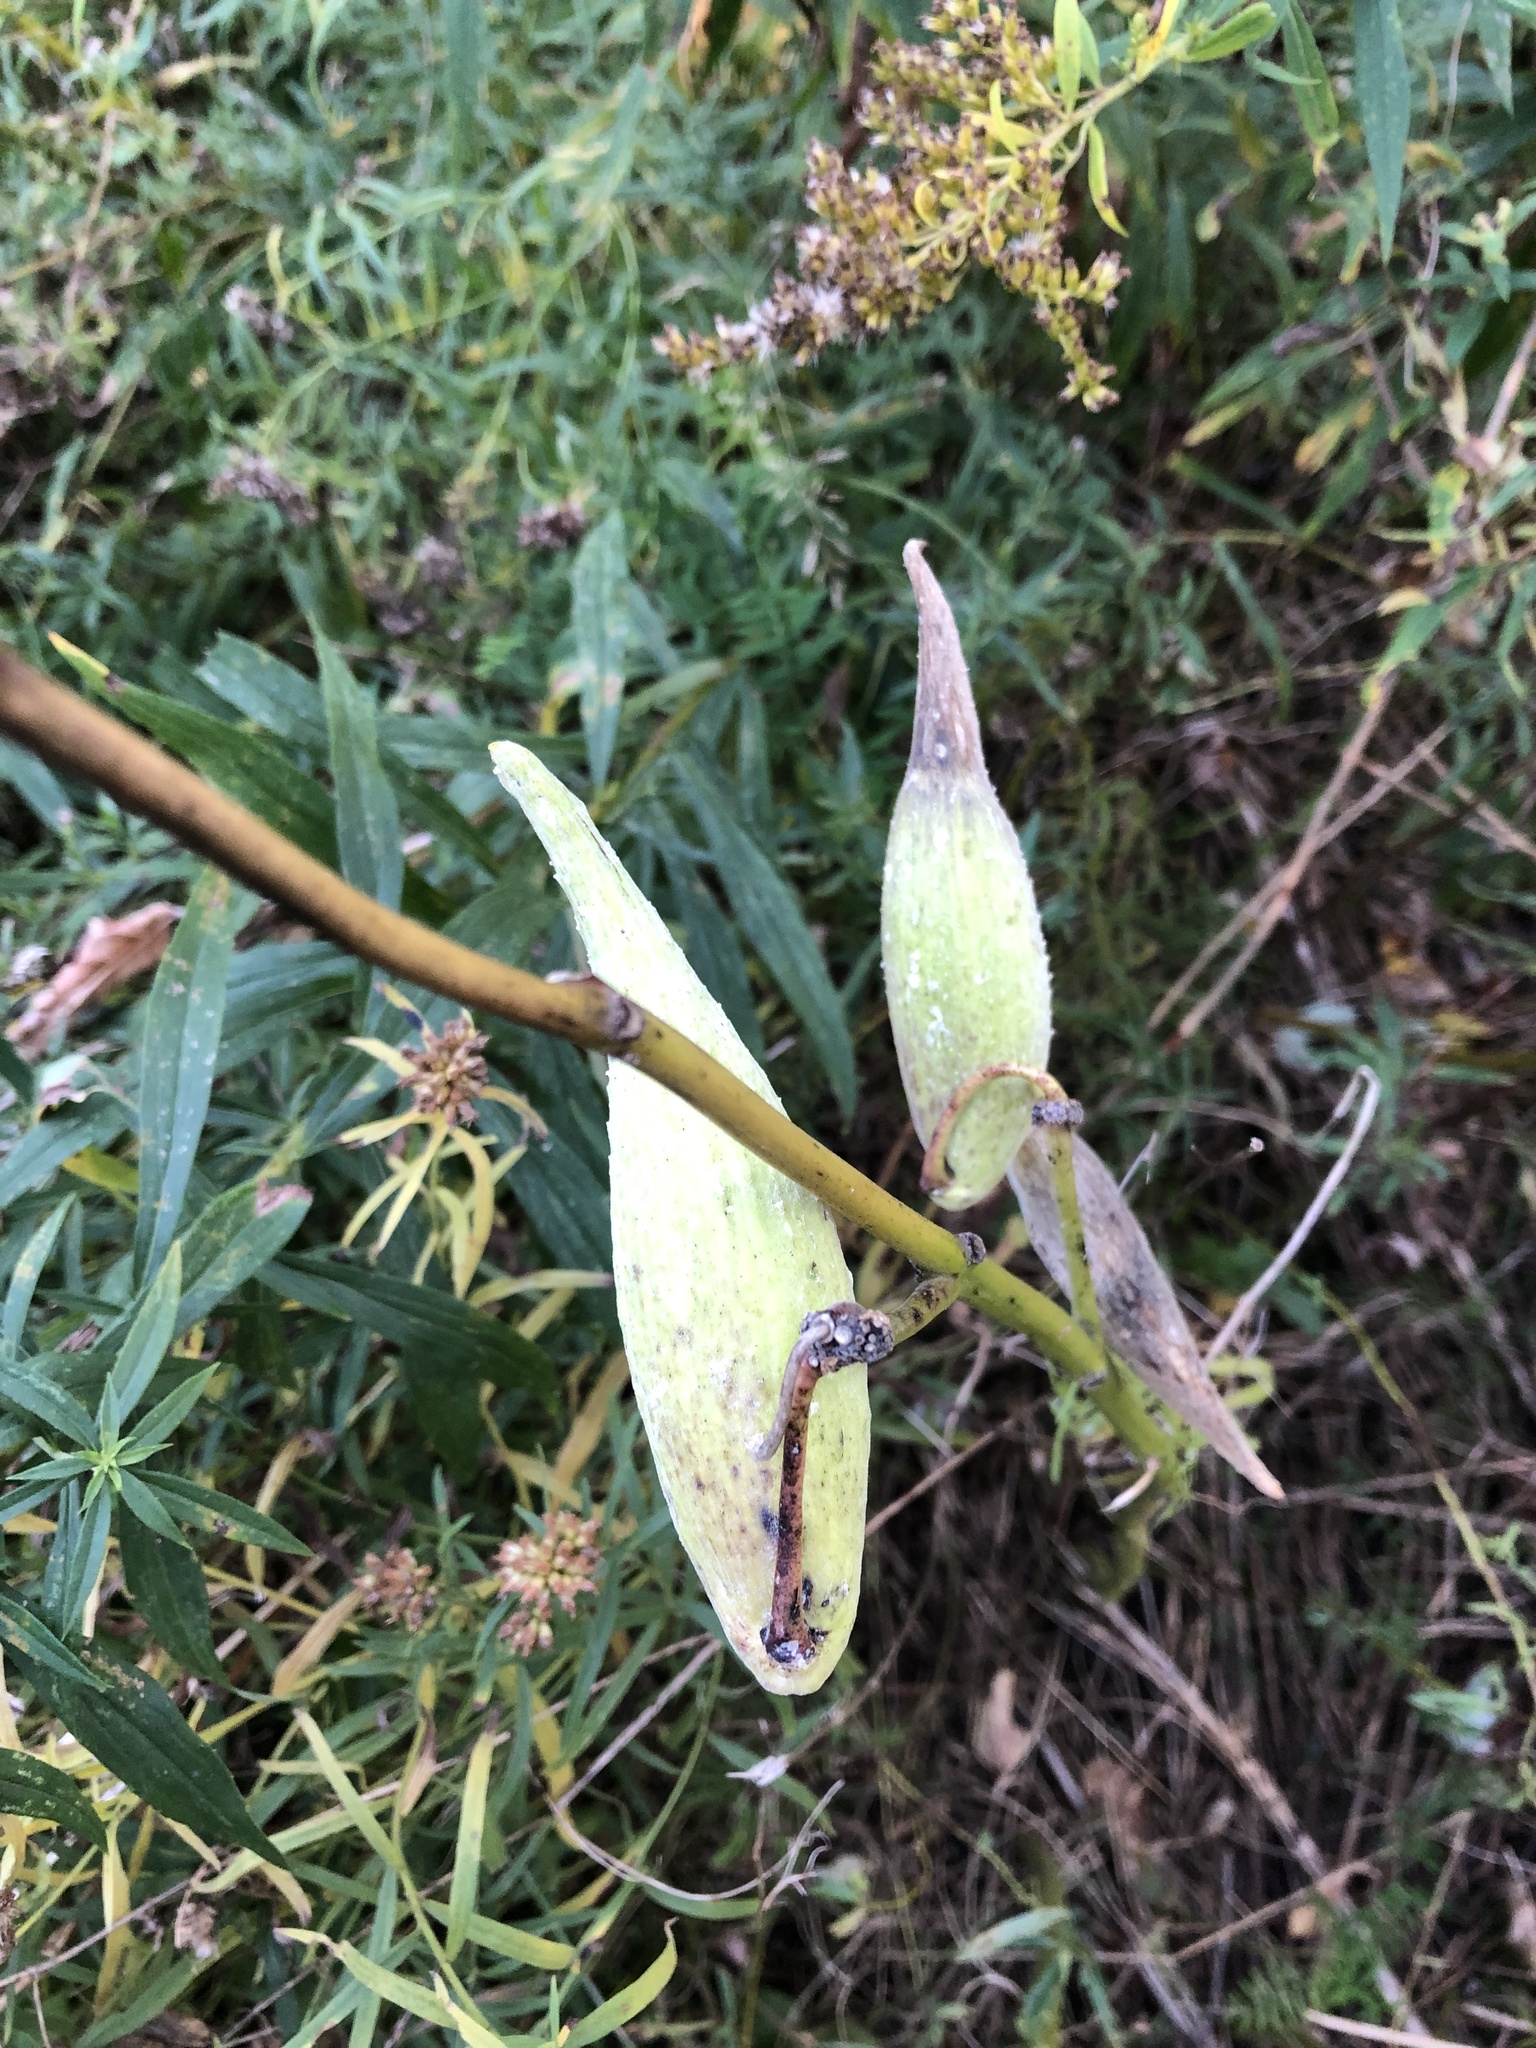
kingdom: Plantae
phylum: Tracheophyta
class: Magnoliopsida
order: Gentianales
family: Apocynaceae
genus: Asclepias
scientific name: Asclepias syriaca
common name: Common milkweed
